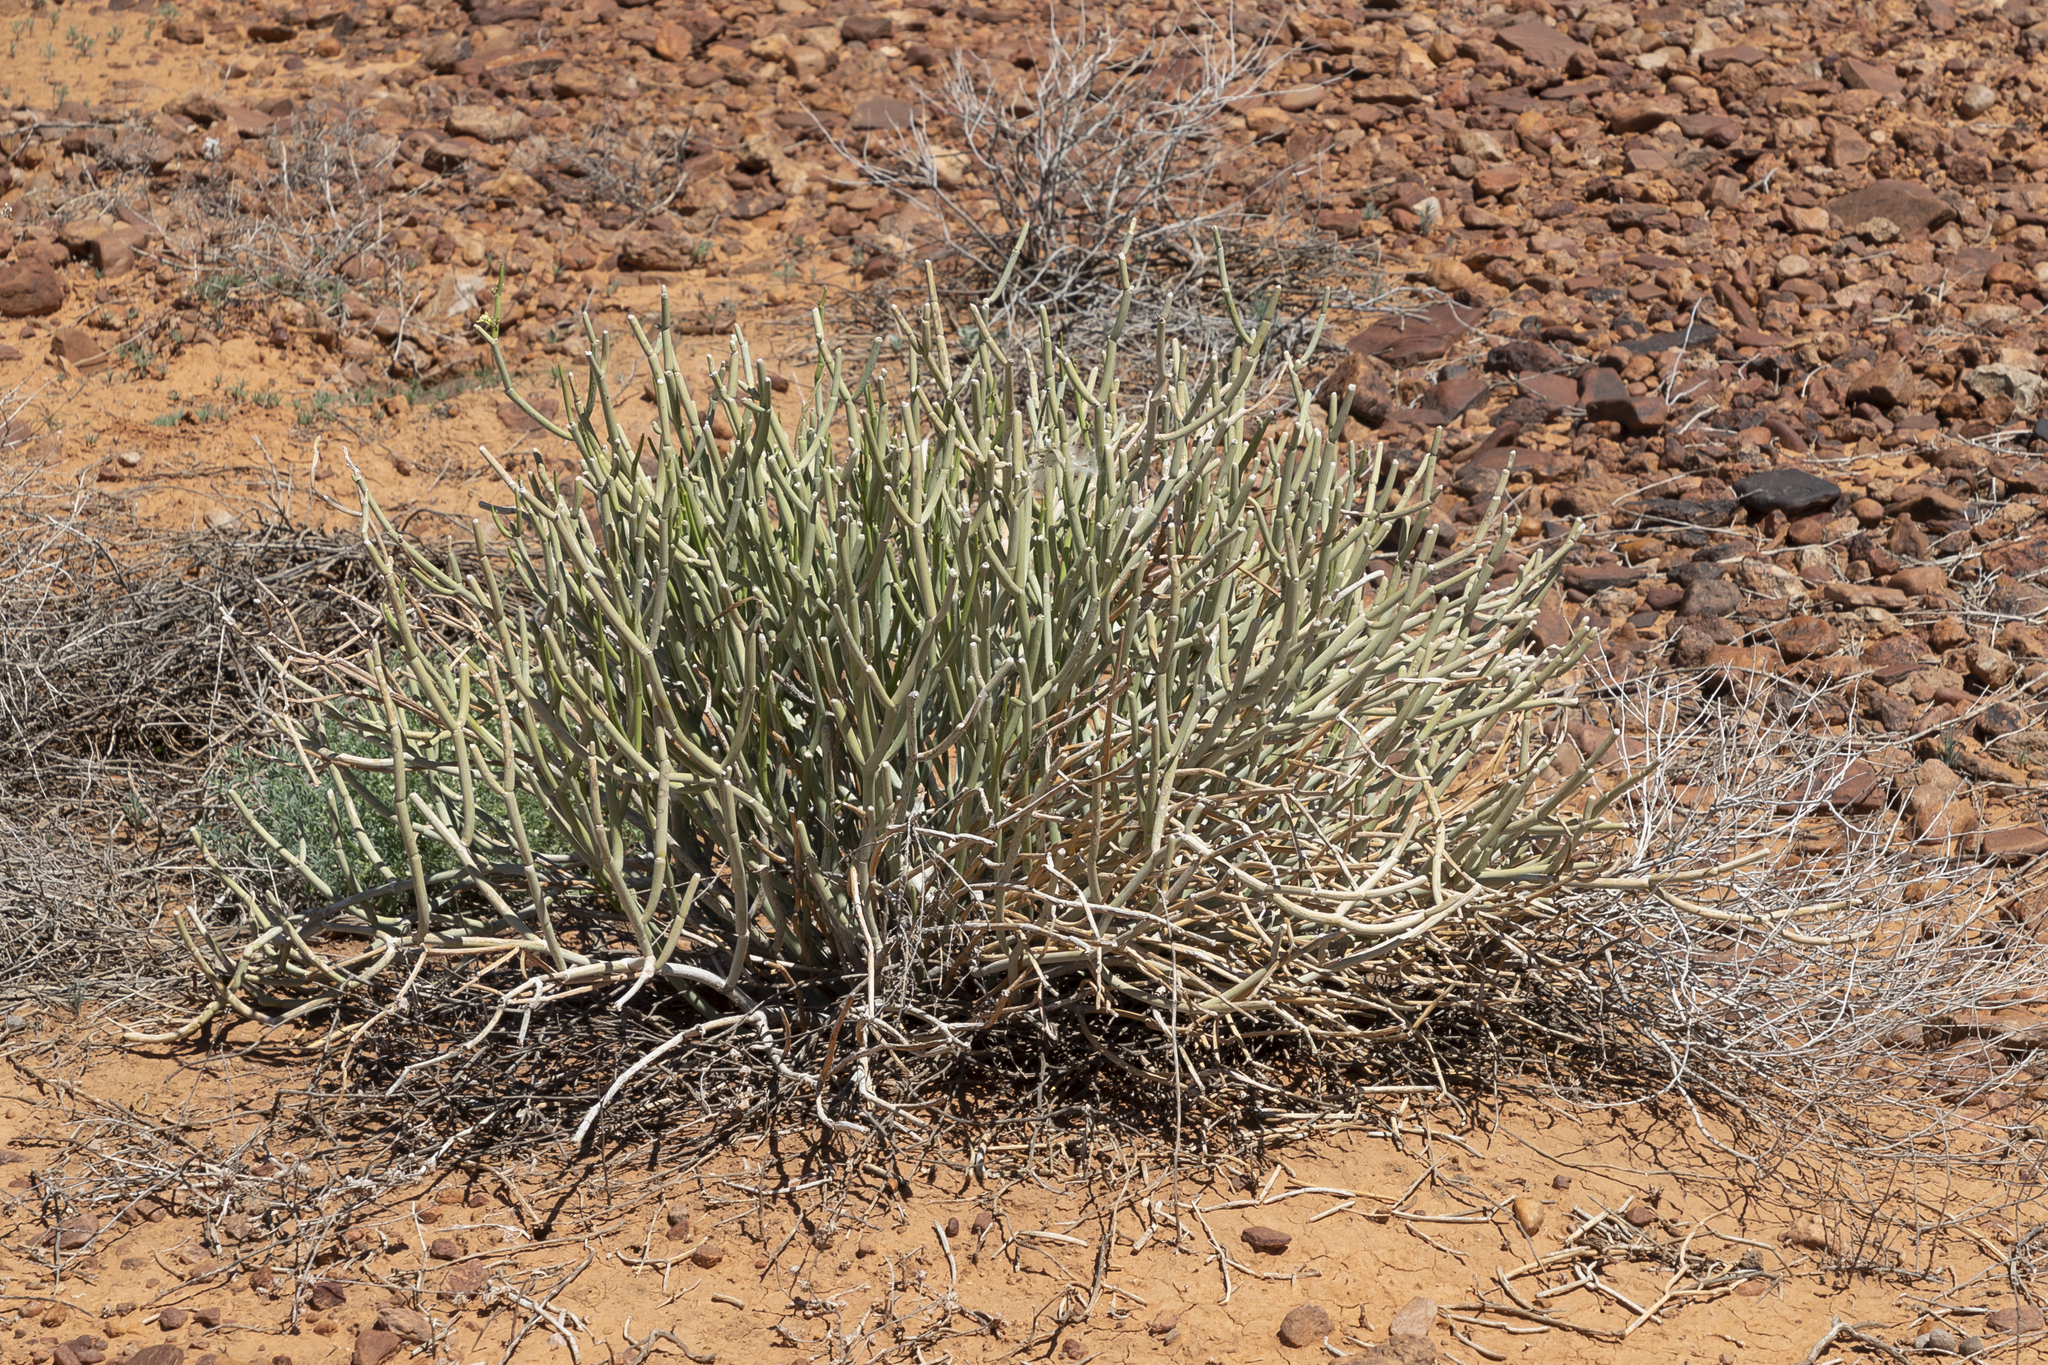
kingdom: Plantae
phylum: Tracheophyta
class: Magnoliopsida
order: Gentianales
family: Apocynaceae
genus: Cynanchum
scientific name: Cynanchum viminale
